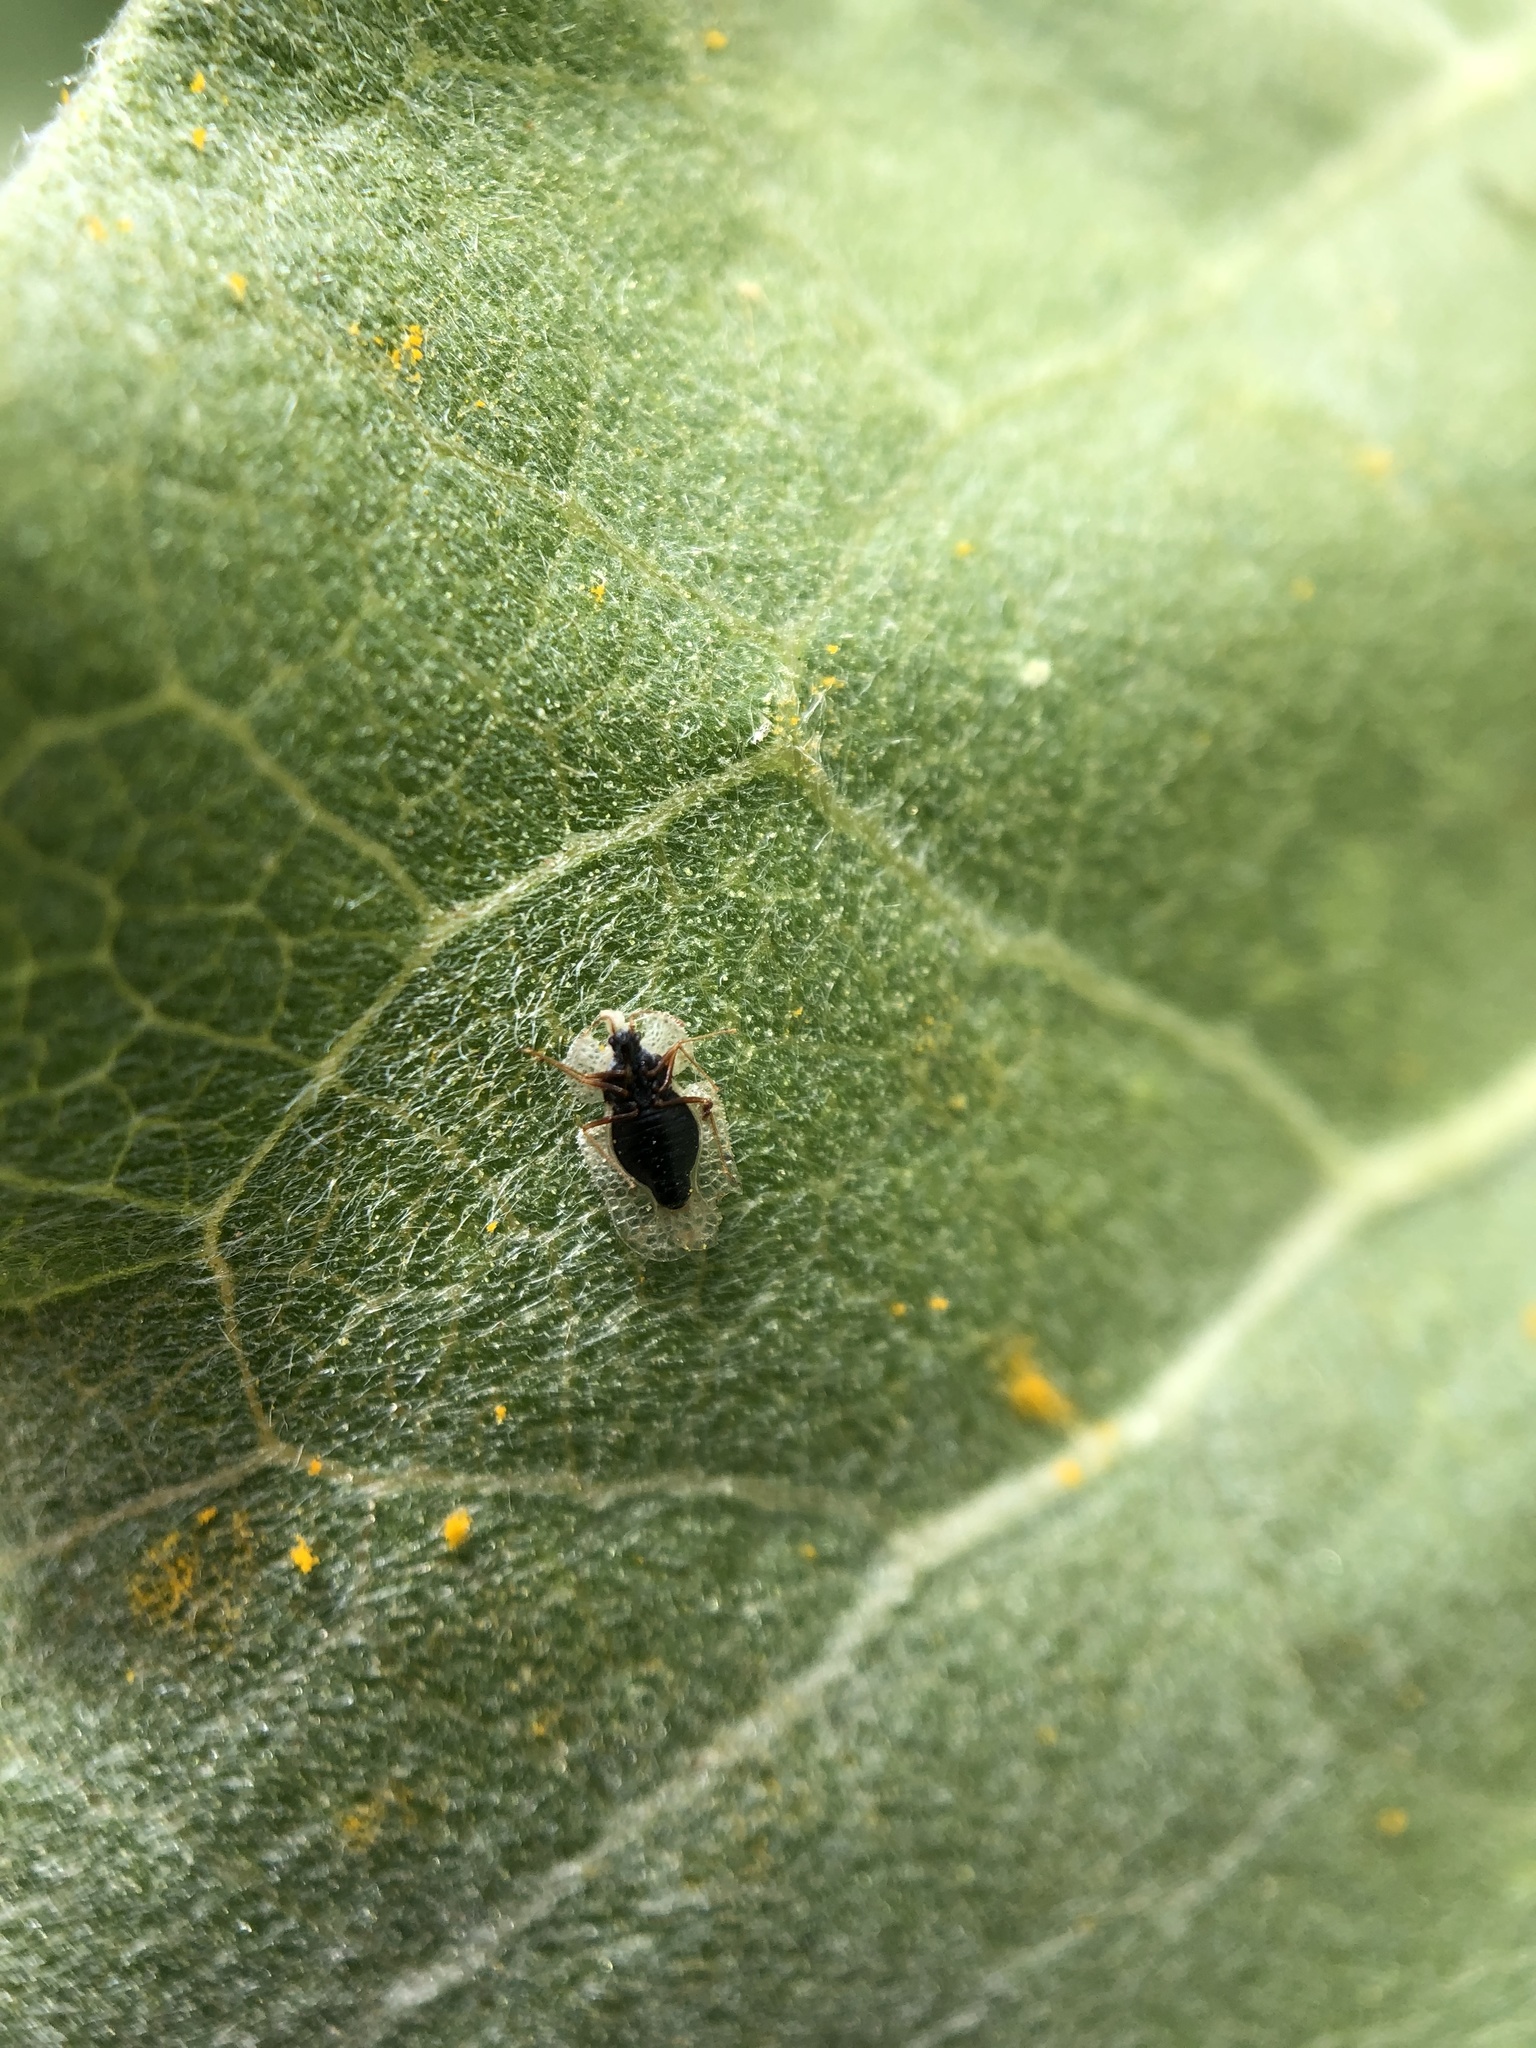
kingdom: Animalia
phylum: Arthropoda
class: Insecta
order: Hemiptera
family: Tingidae
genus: Corythucha
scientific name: Corythucha immaculata
